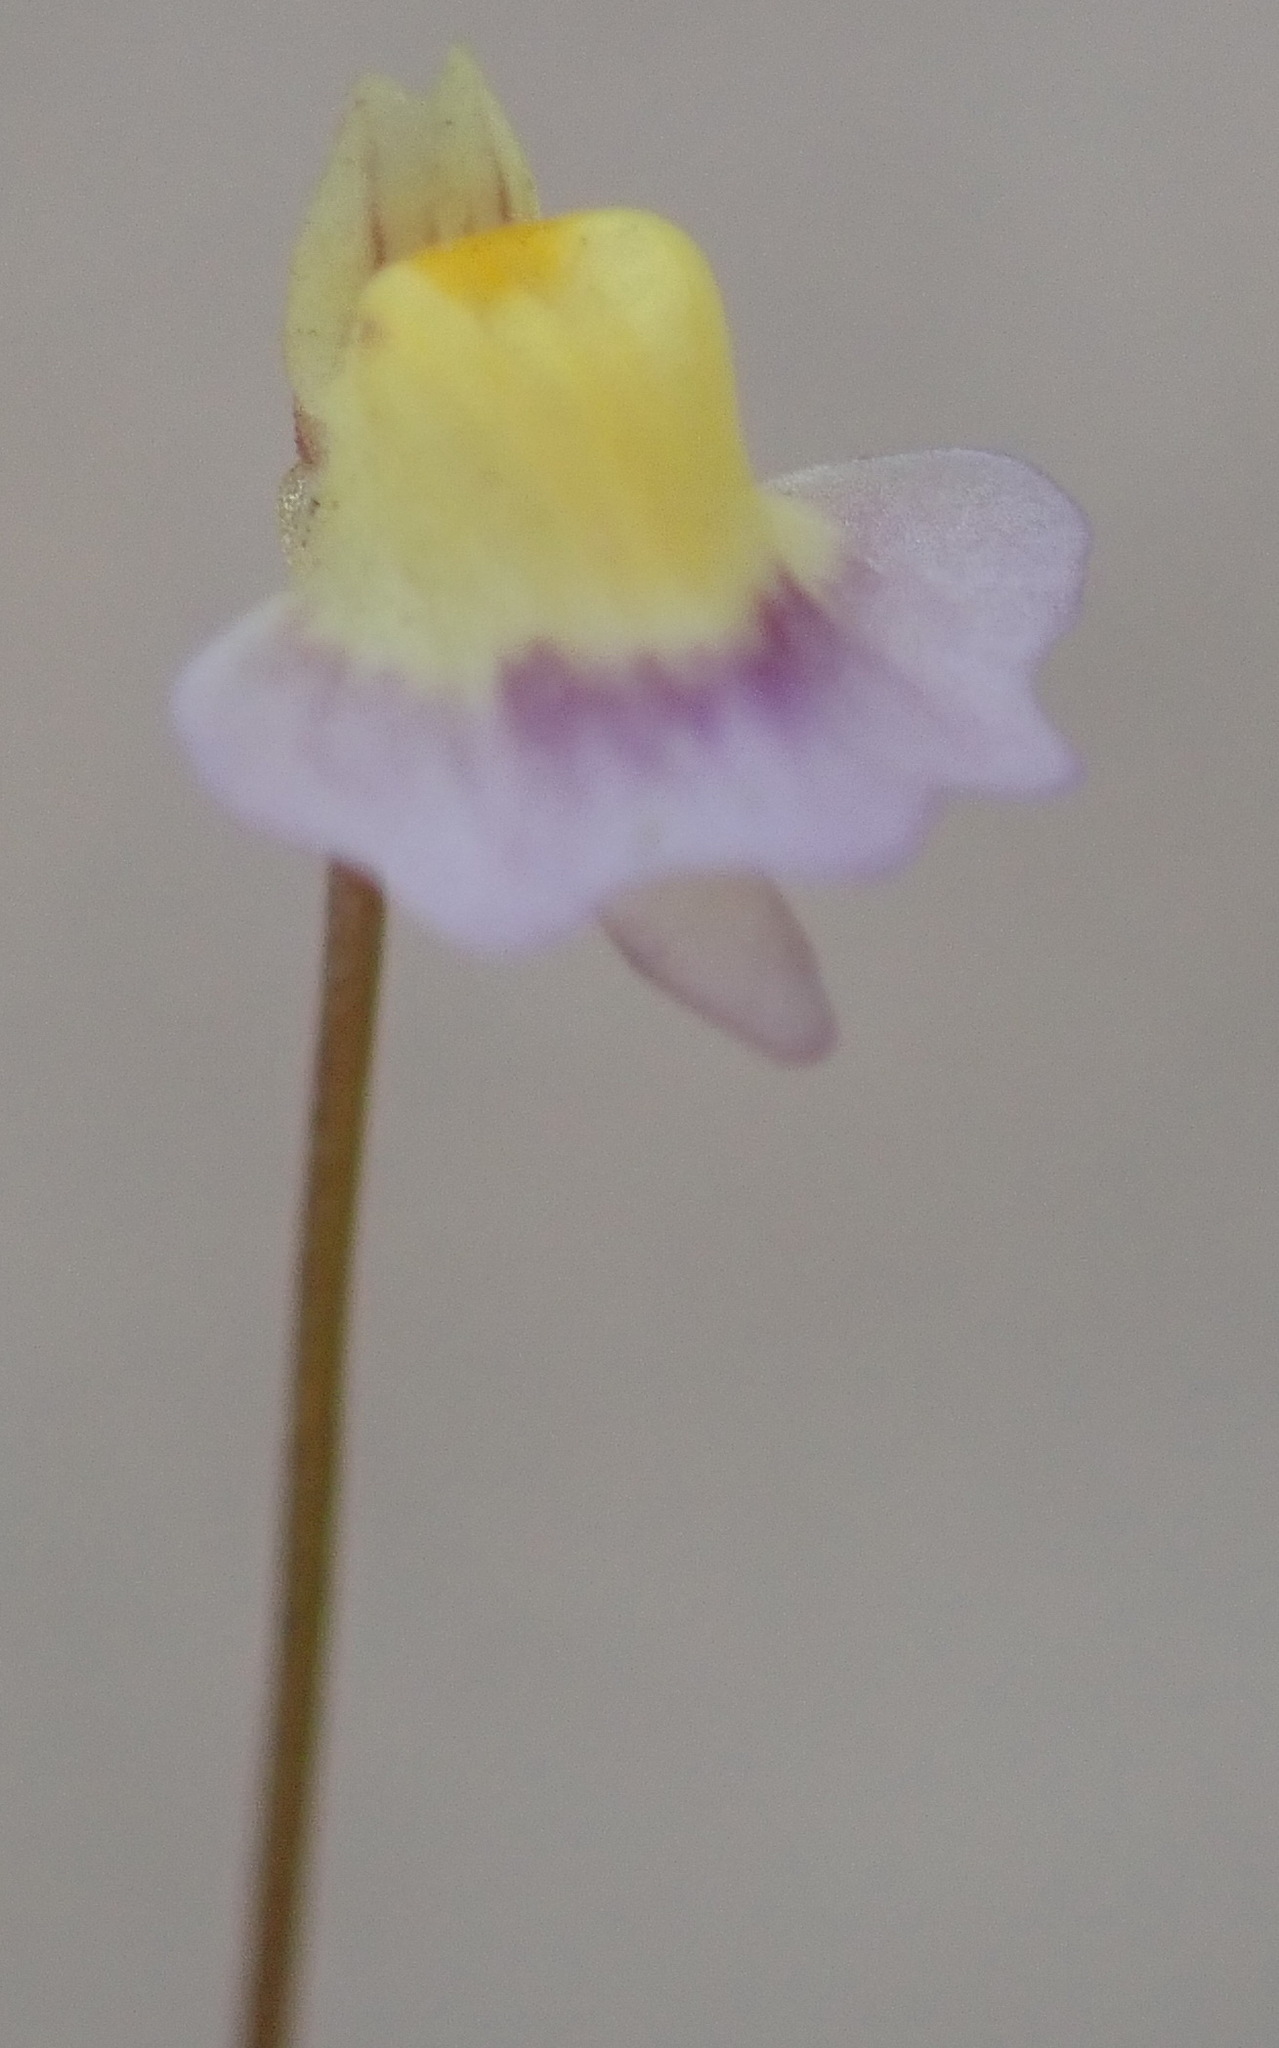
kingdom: Plantae
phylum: Tracheophyta
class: Magnoliopsida
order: Lamiales
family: Lentibulariaceae
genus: Utricularia
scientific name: Utricularia bisquamata
